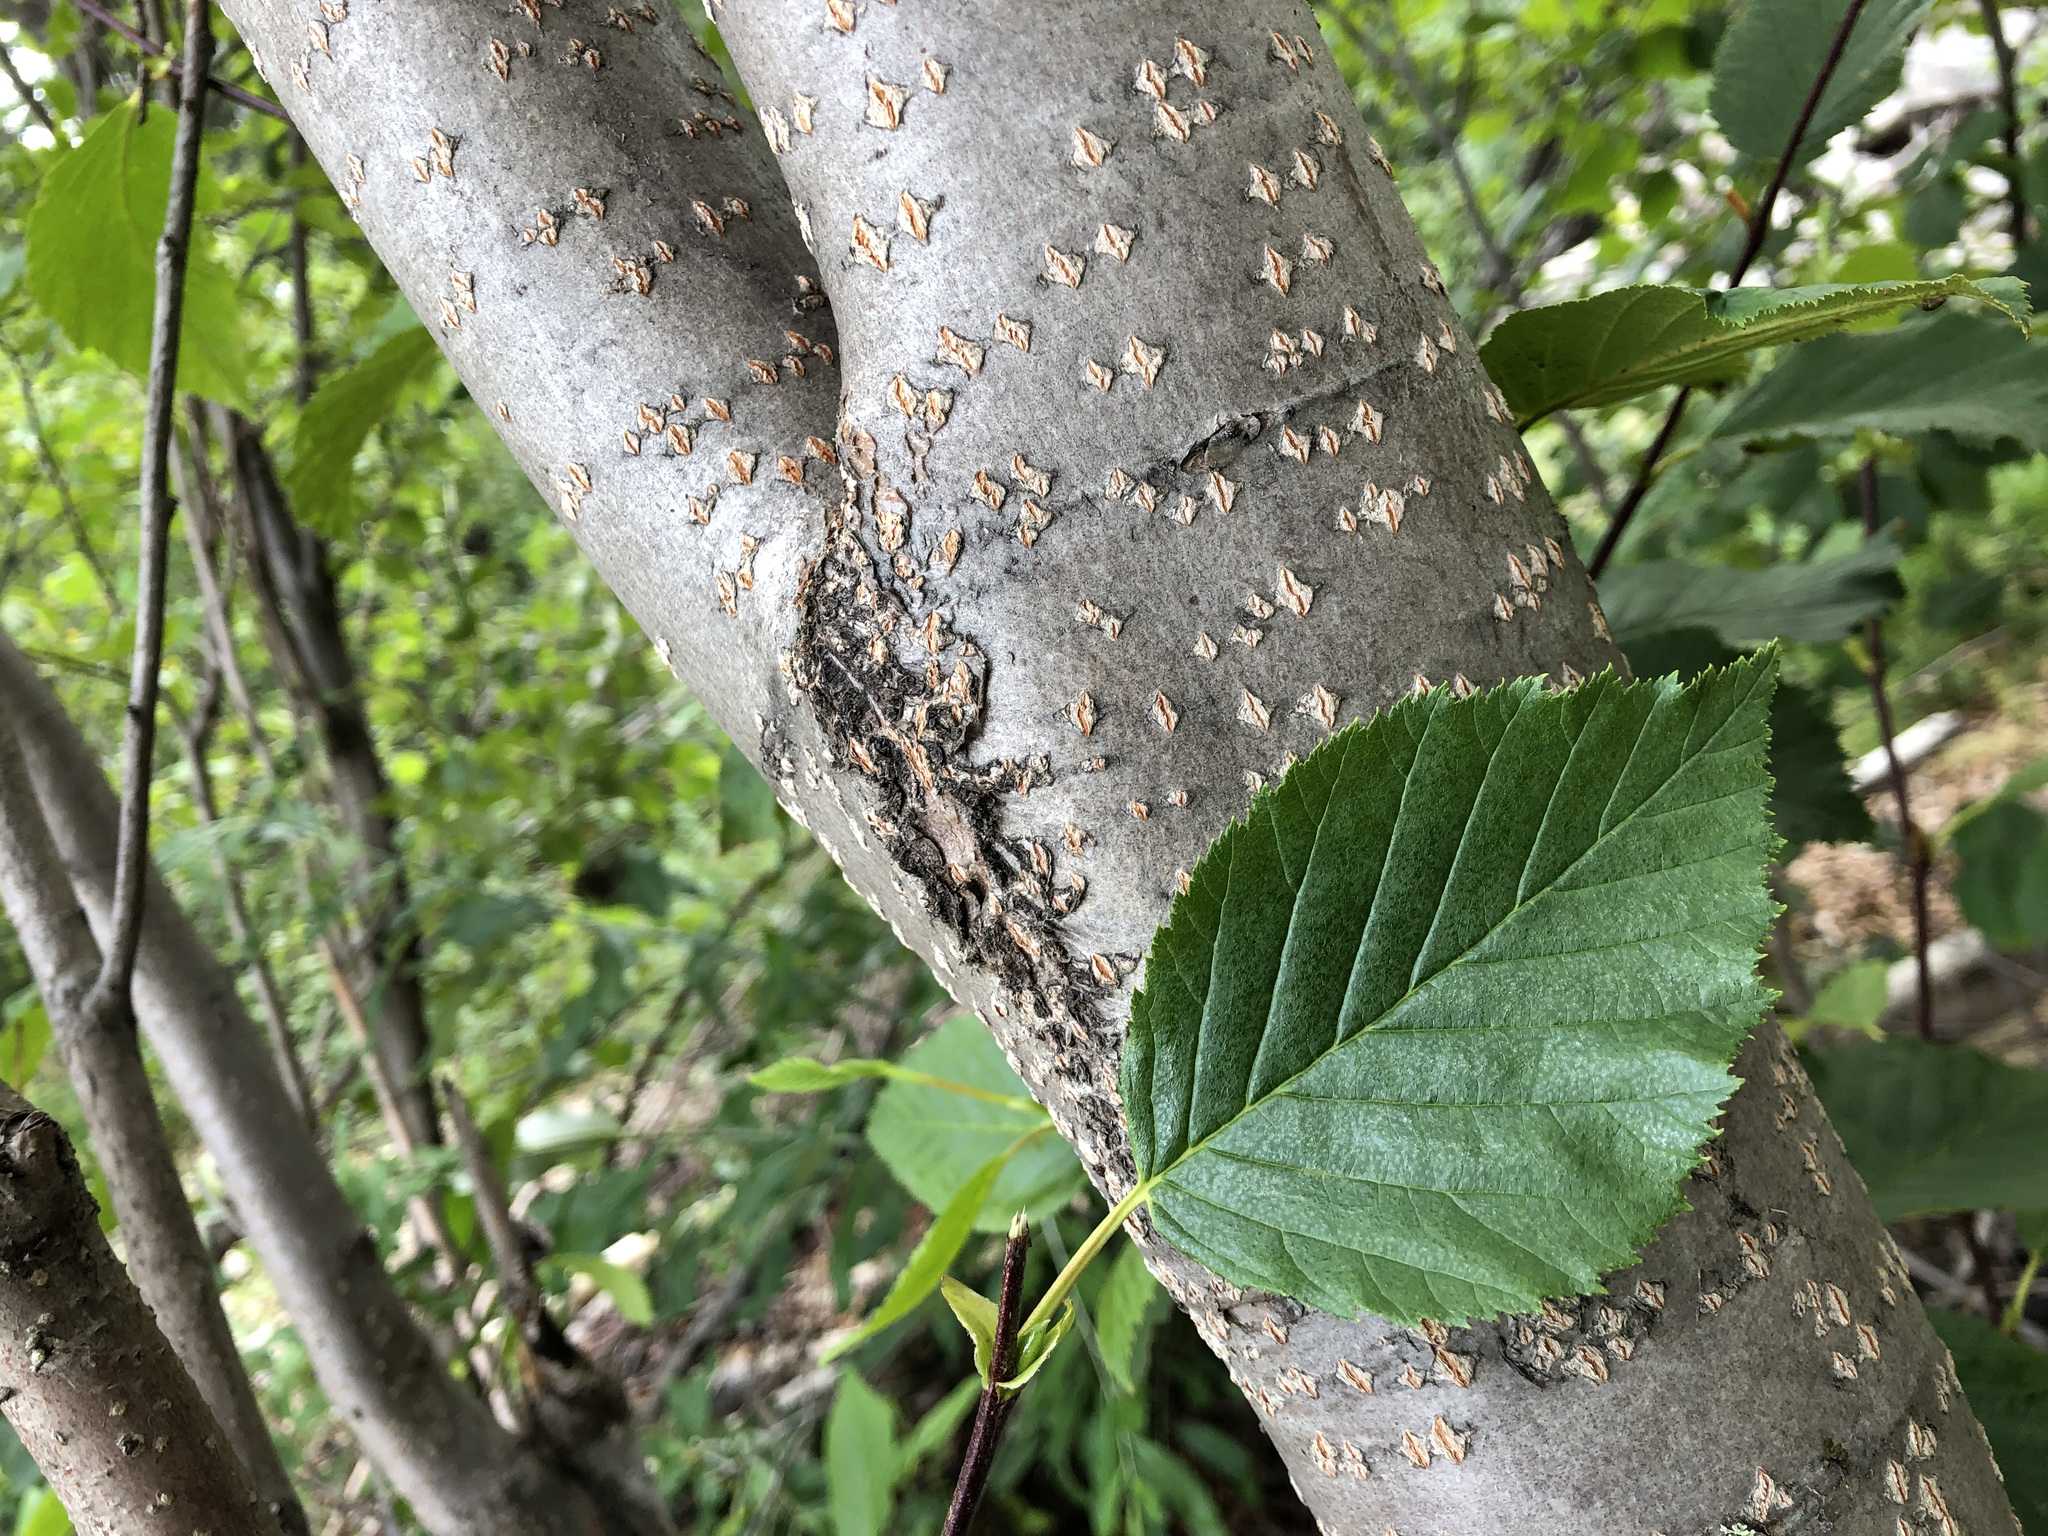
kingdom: Plantae
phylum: Tracheophyta
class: Magnoliopsida
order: Fagales
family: Betulaceae
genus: Alnus
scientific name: Alnus alnobetula
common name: Green alder
